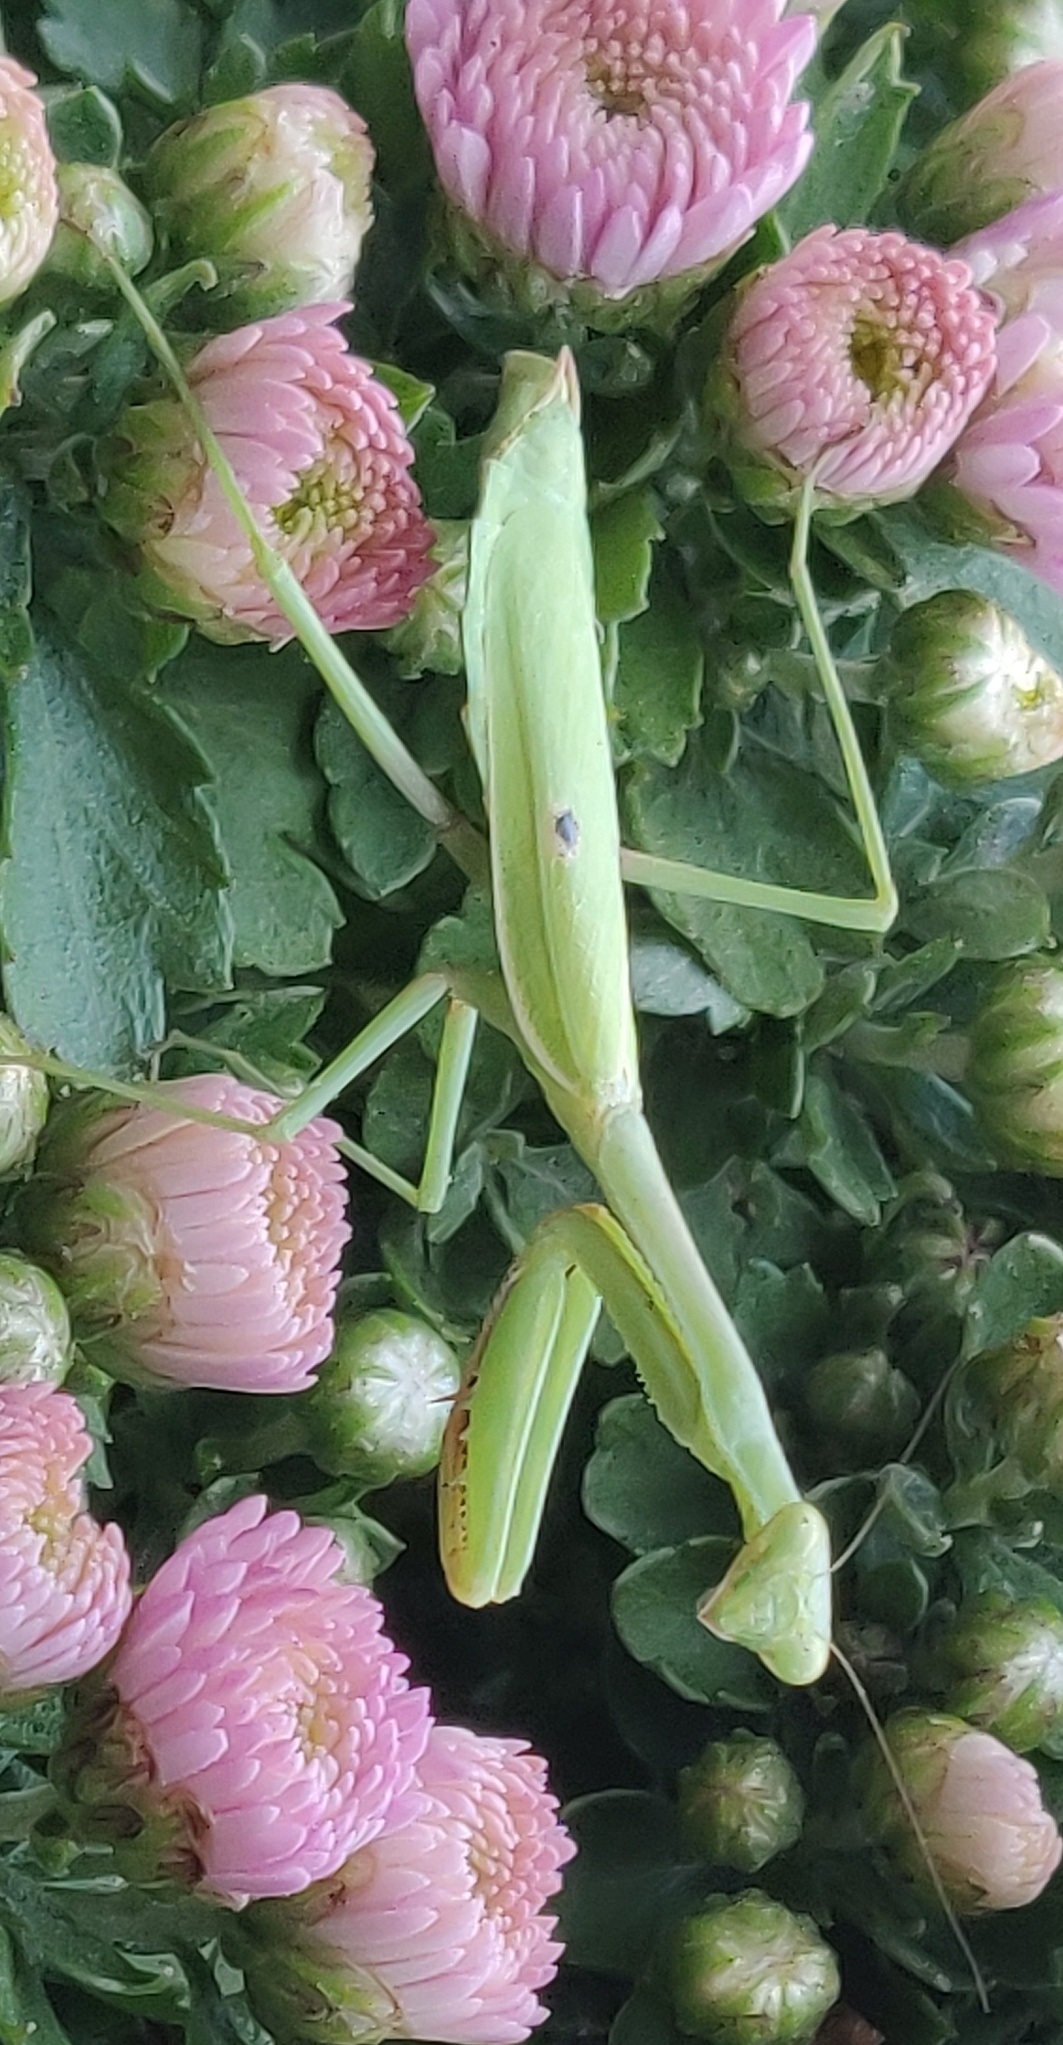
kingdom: Animalia
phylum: Arthropoda
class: Insecta
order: Mantodea
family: Mantidae
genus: Stagmomantis
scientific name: Stagmomantis carolina
